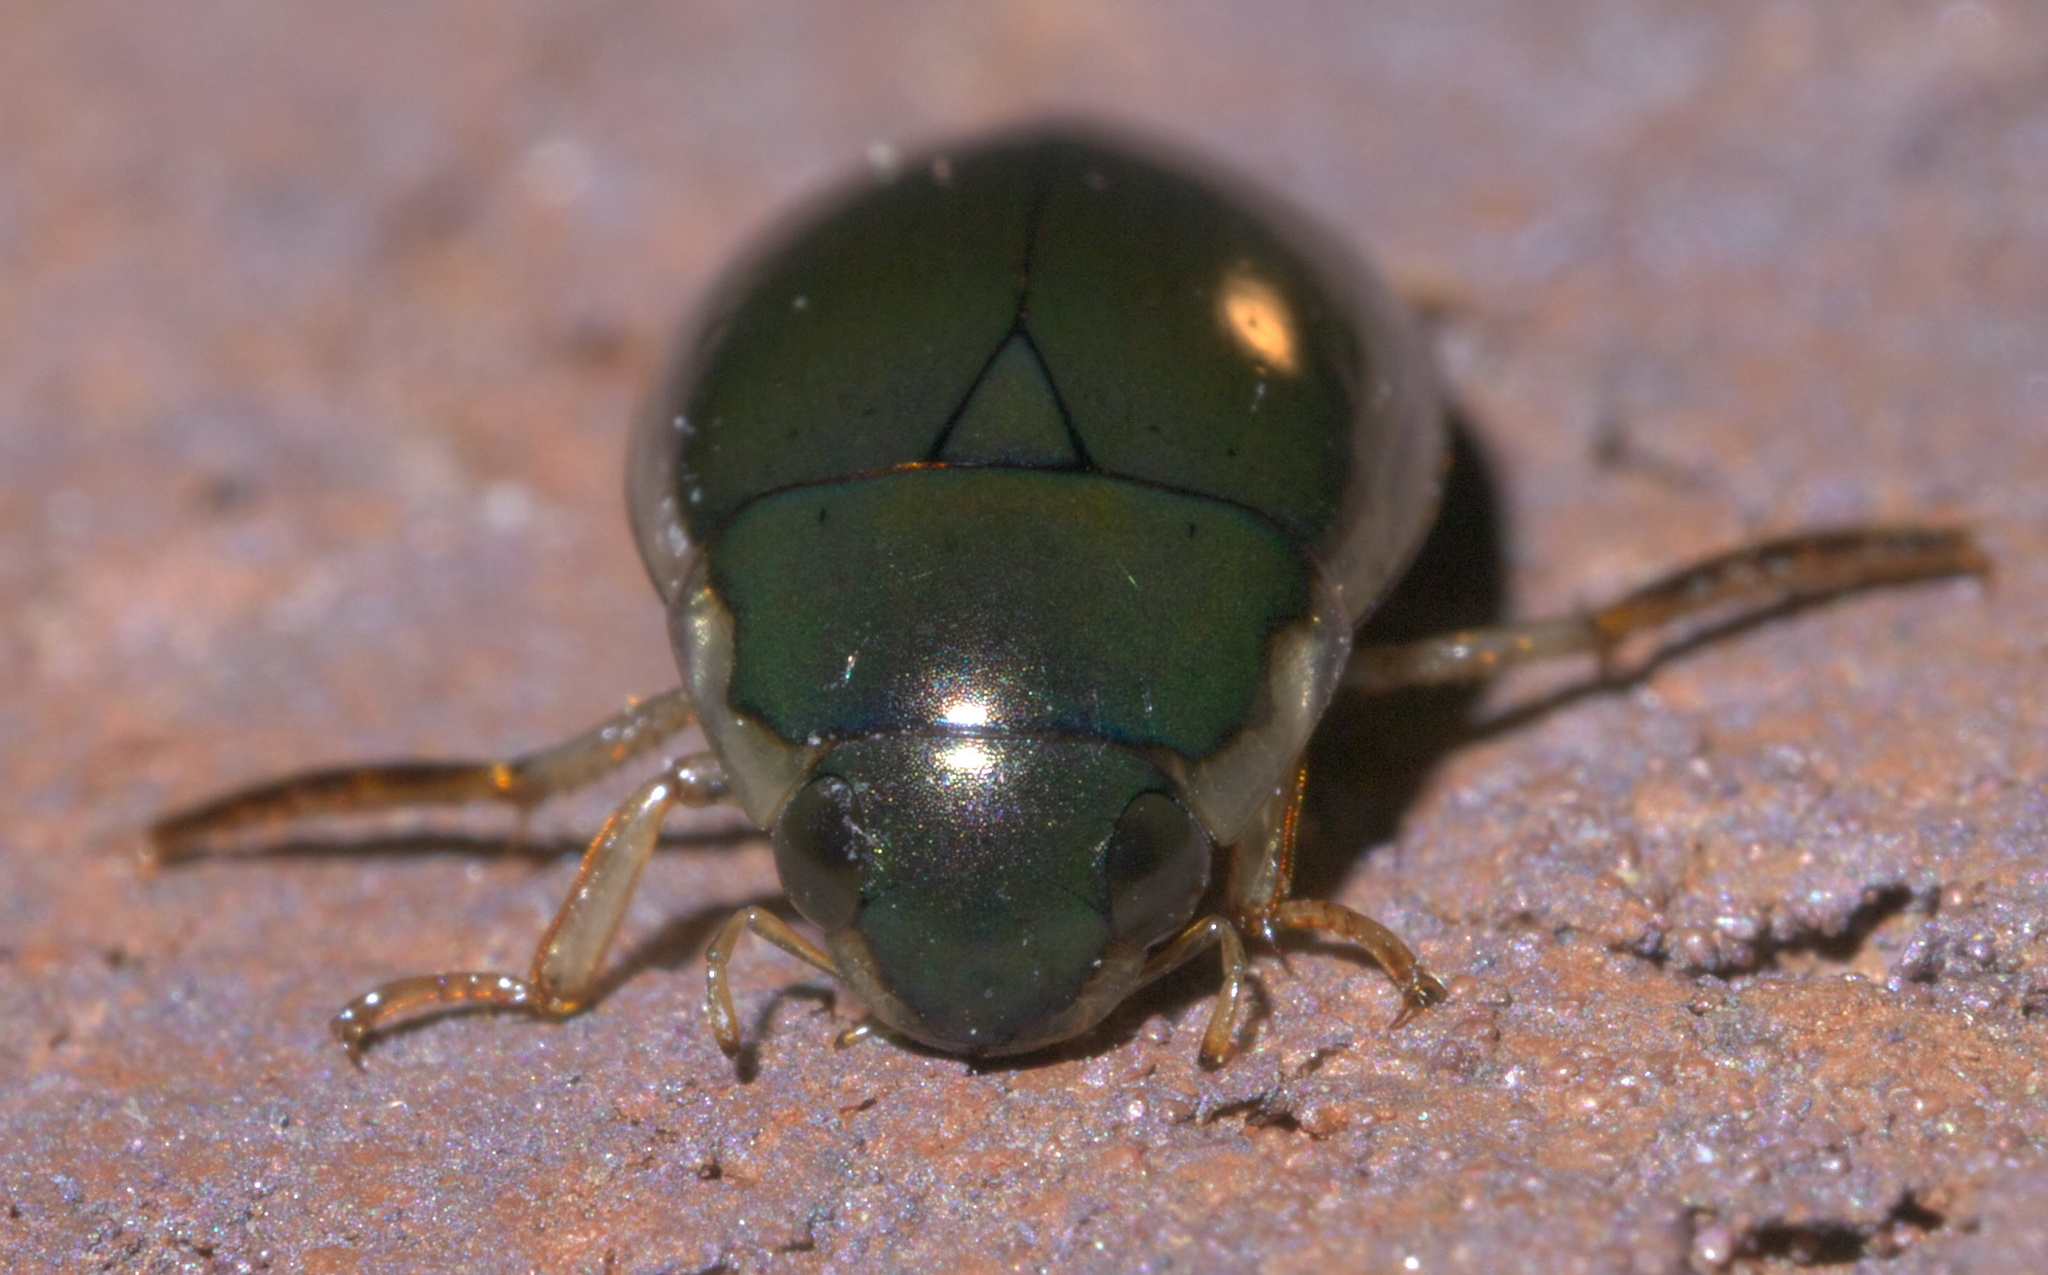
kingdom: Animalia
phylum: Arthropoda
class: Insecta
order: Coleoptera
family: Hydrophilidae
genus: Tropisternus
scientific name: Tropisternus lateralis
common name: Lateral-banded water scavenger beetle
